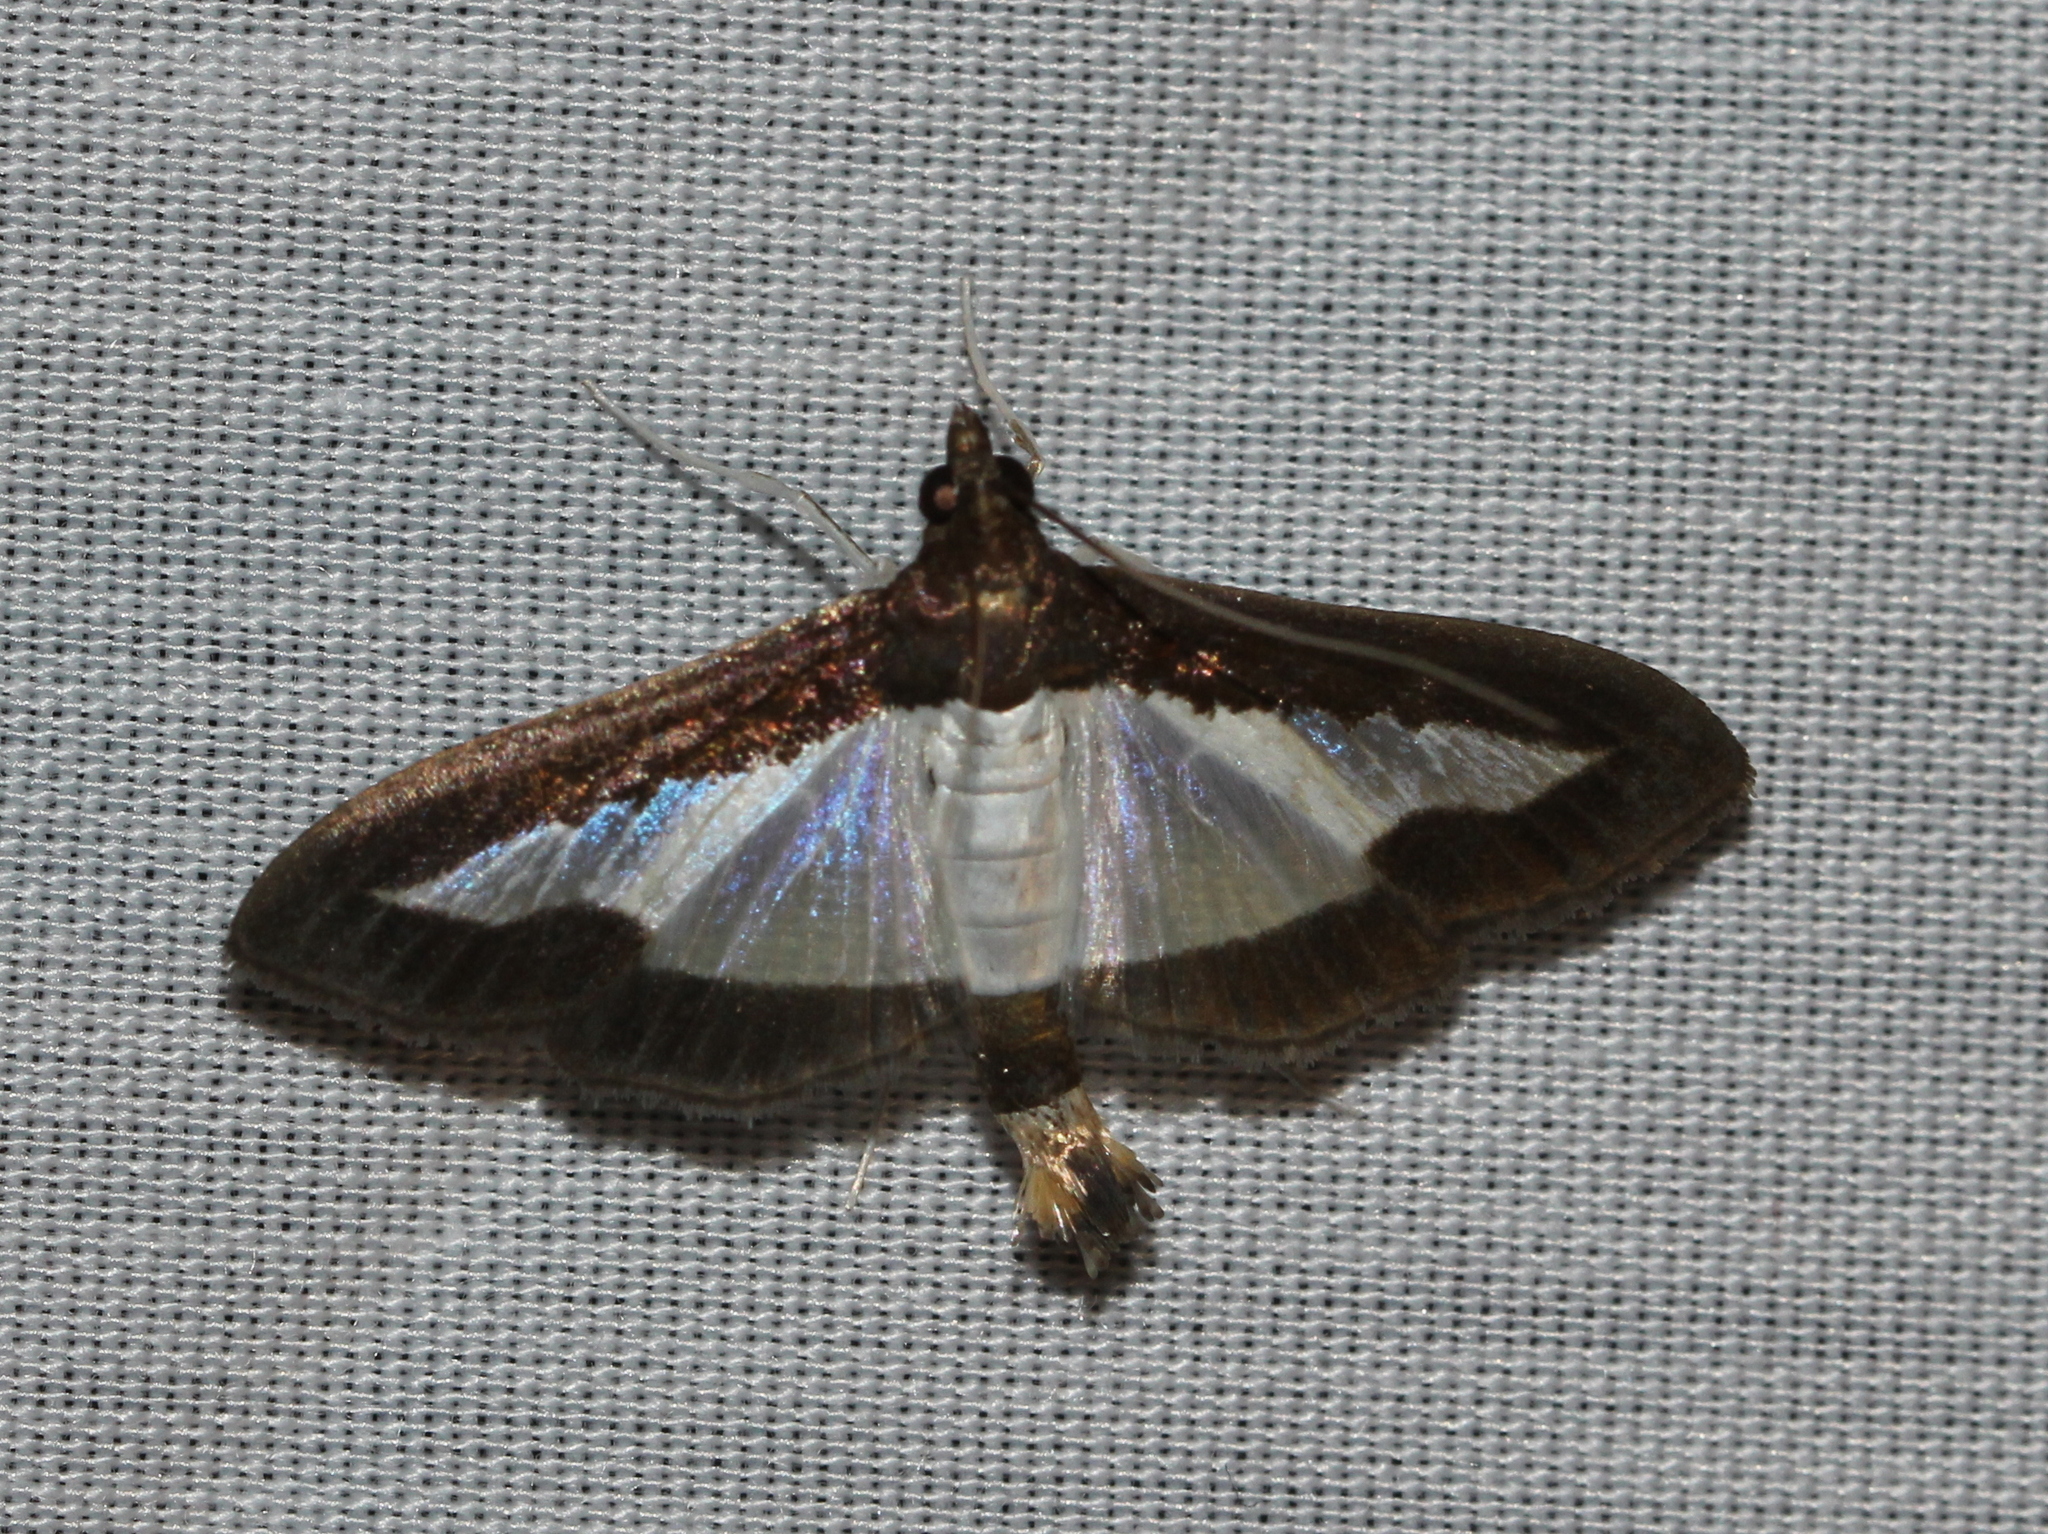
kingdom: Animalia
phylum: Arthropoda
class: Insecta
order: Lepidoptera
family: Crambidae
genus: Diaphania
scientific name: Diaphania indica
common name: Cucumber moth
